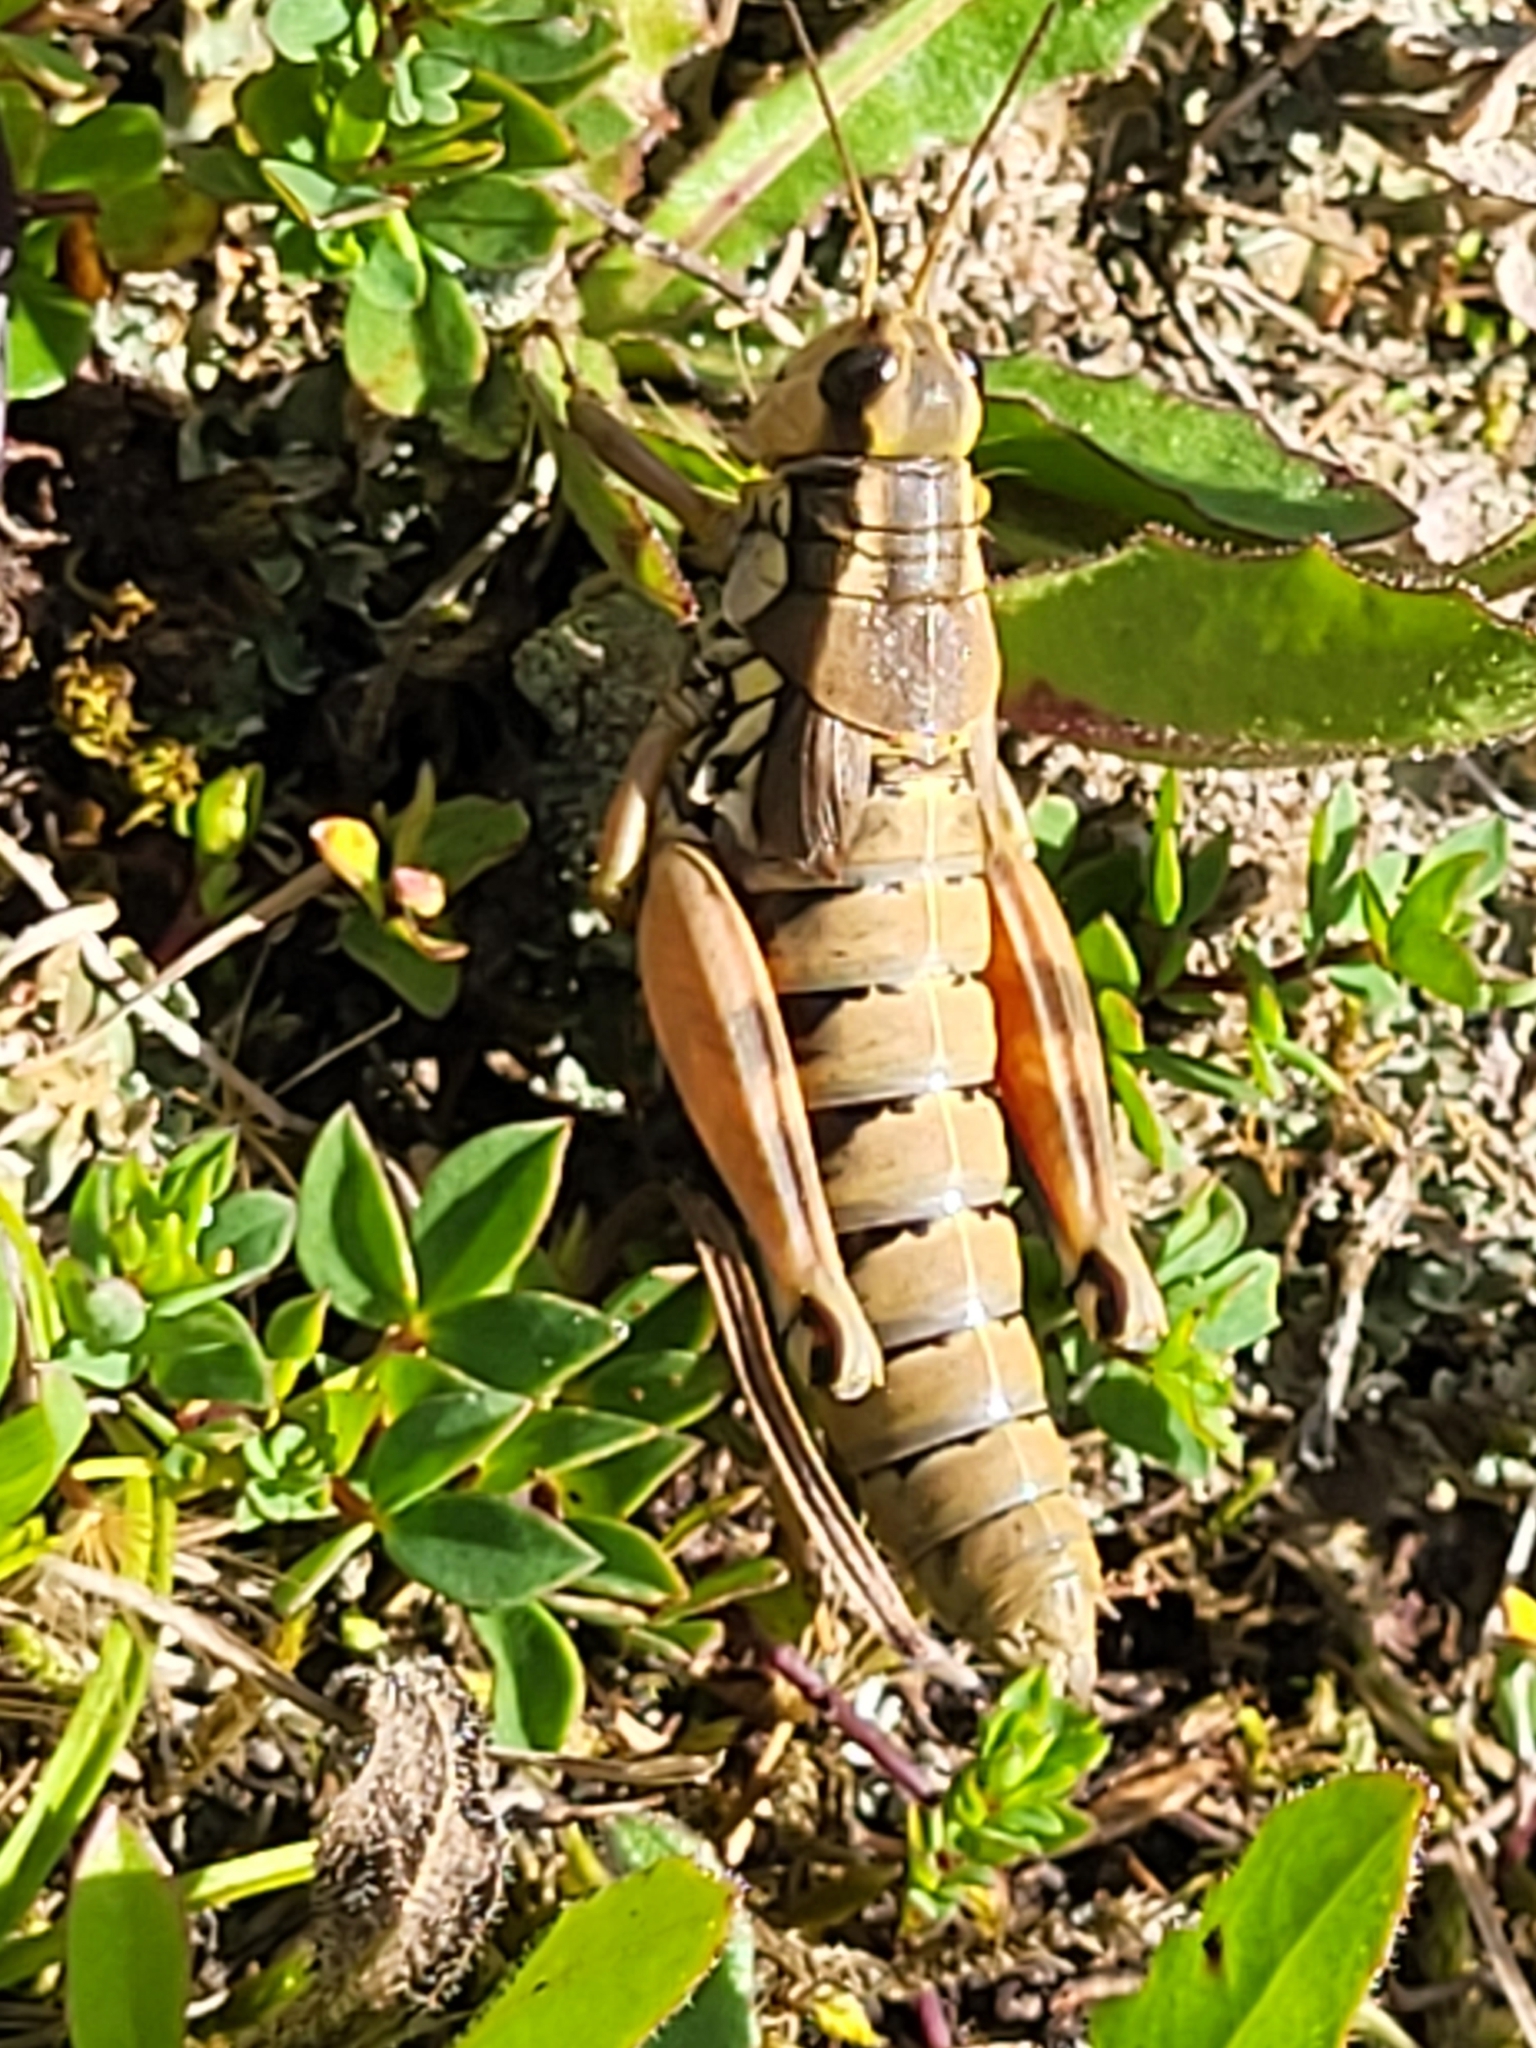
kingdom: Animalia
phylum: Arthropoda
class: Insecta
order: Orthoptera
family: Acrididae
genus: Podisma
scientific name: Podisma pedestris
